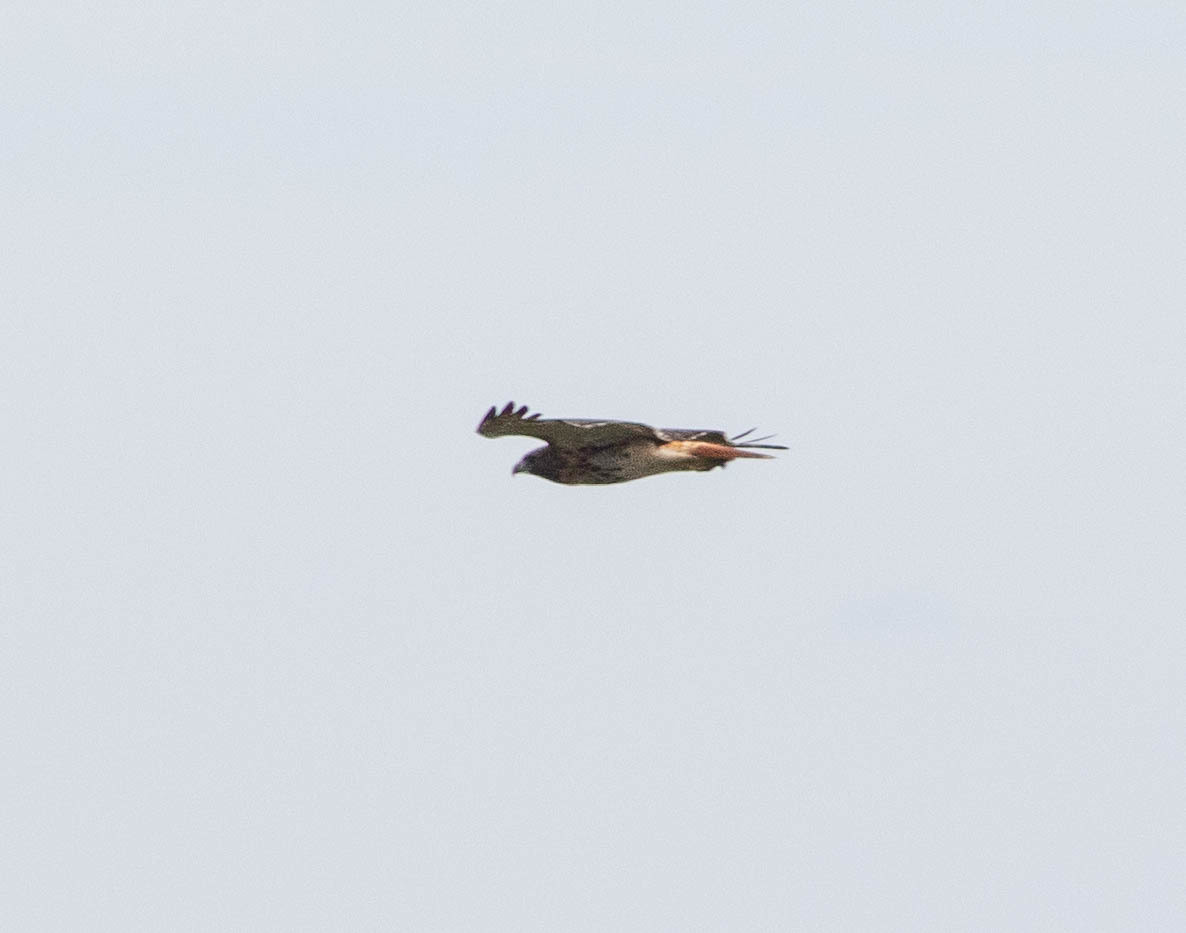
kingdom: Animalia
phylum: Chordata
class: Aves
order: Accipitriformes
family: Accipitridae
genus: Buteo
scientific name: Buteo jamaicensis
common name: Red-tailed hawk
